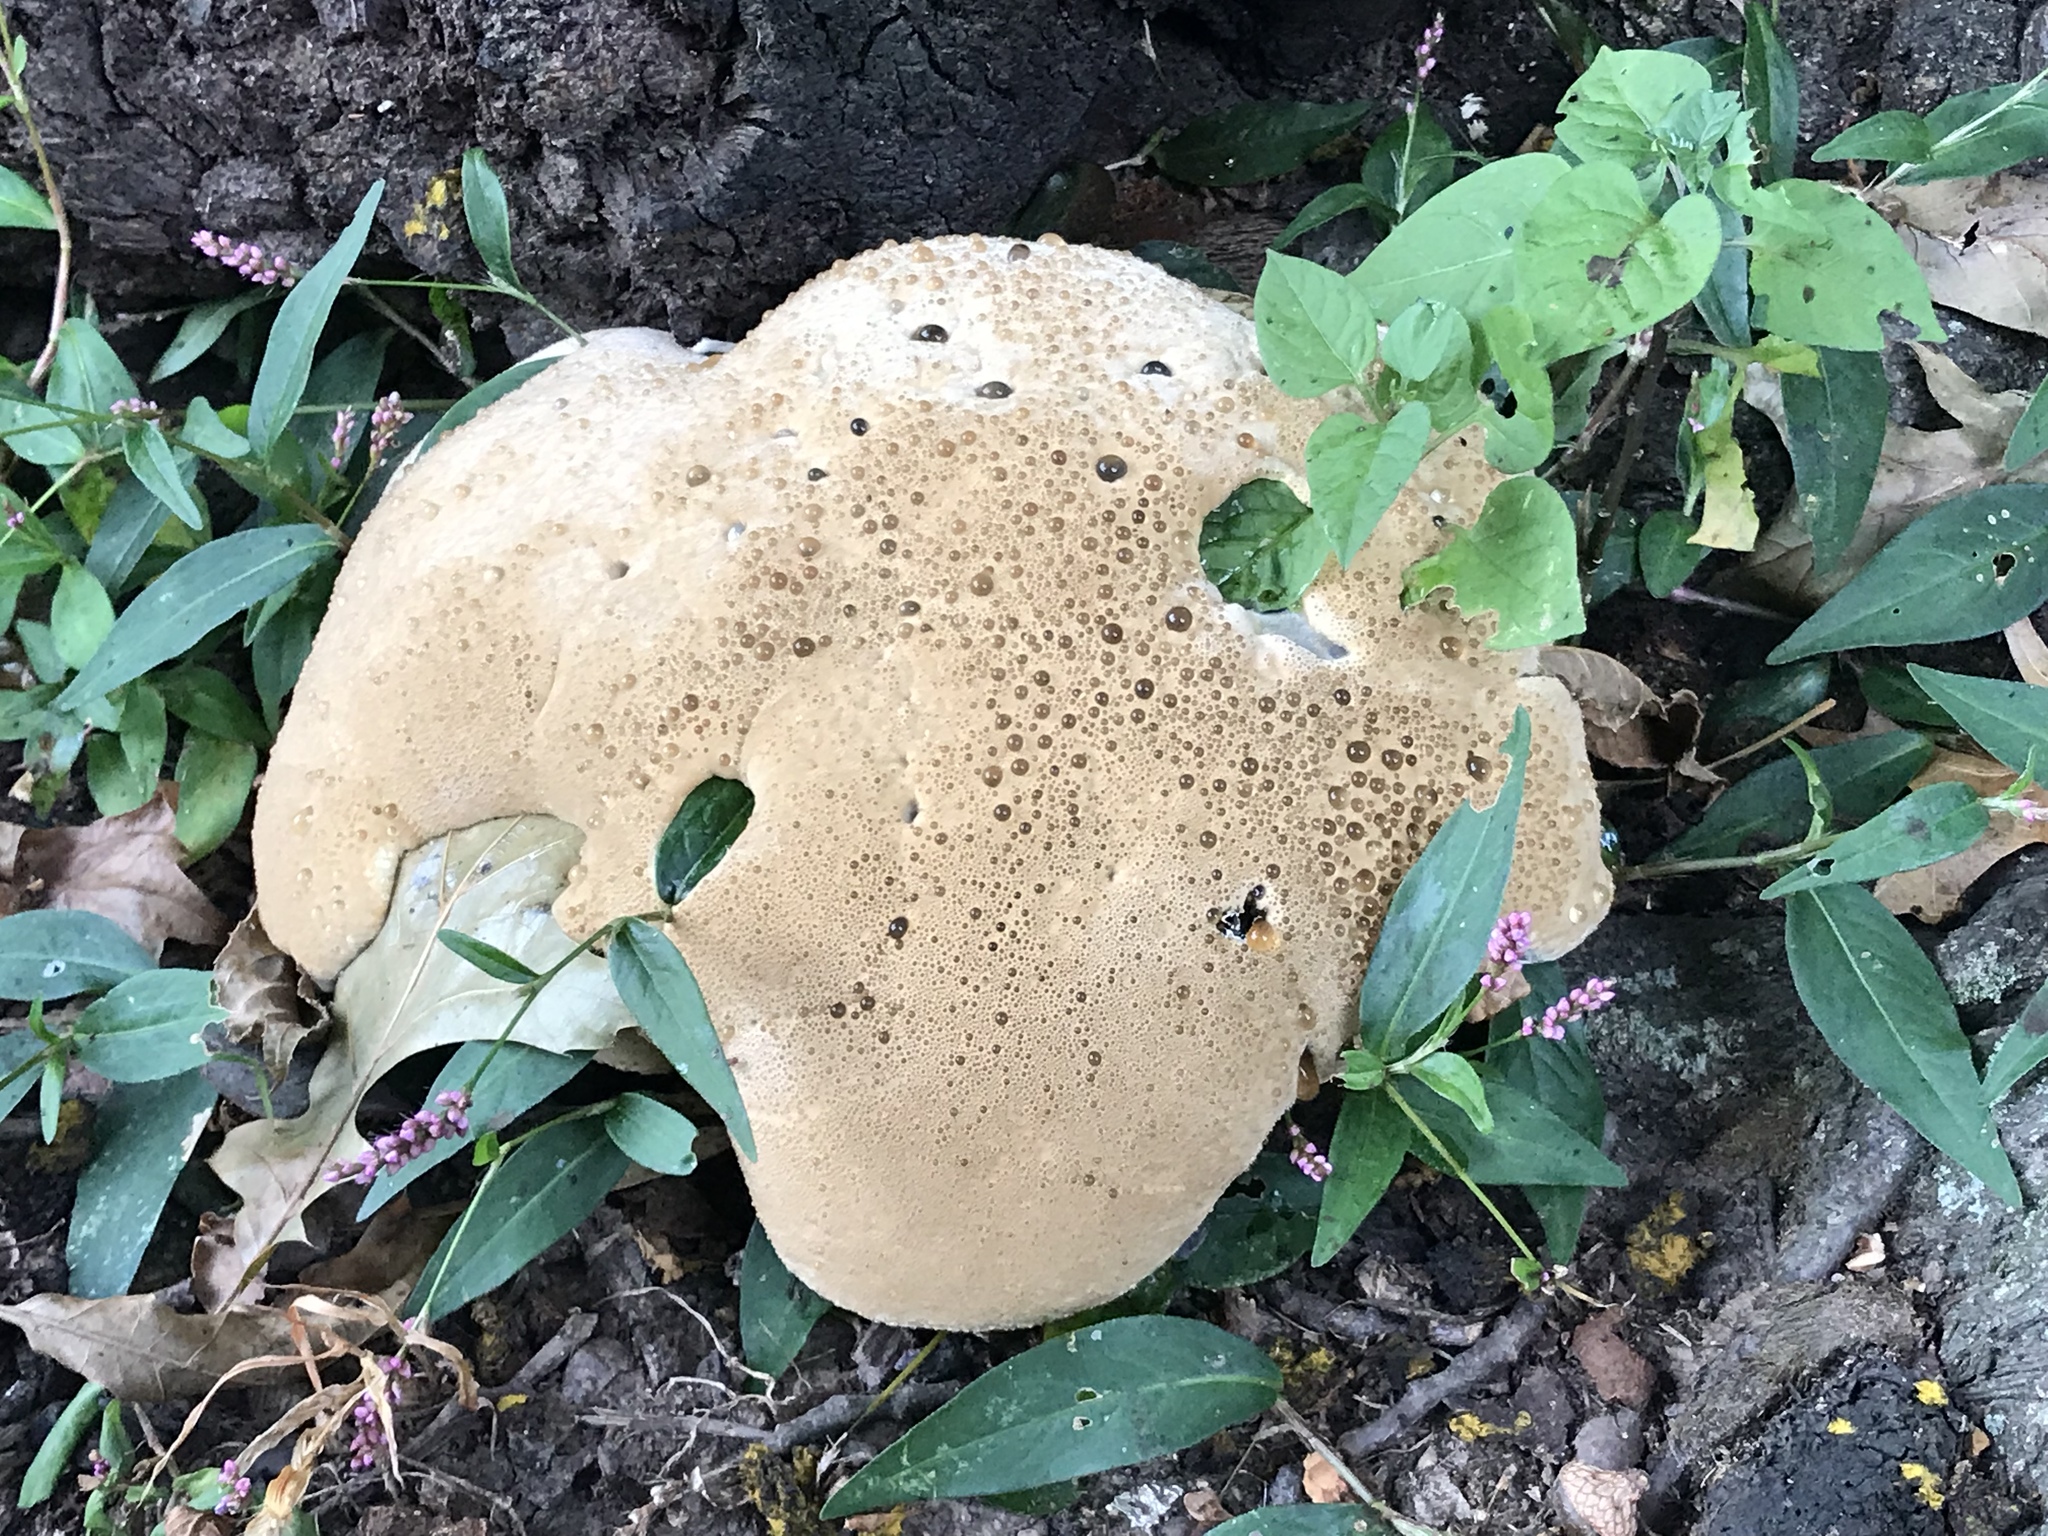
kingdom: Fungi
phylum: Basidiomycota
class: Agaricomycetes
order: Hymenochaetales
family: Hymenochaetaceae
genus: Pseudoinonotus
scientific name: Pseudoinonotus dryadeus
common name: Oak bracket
